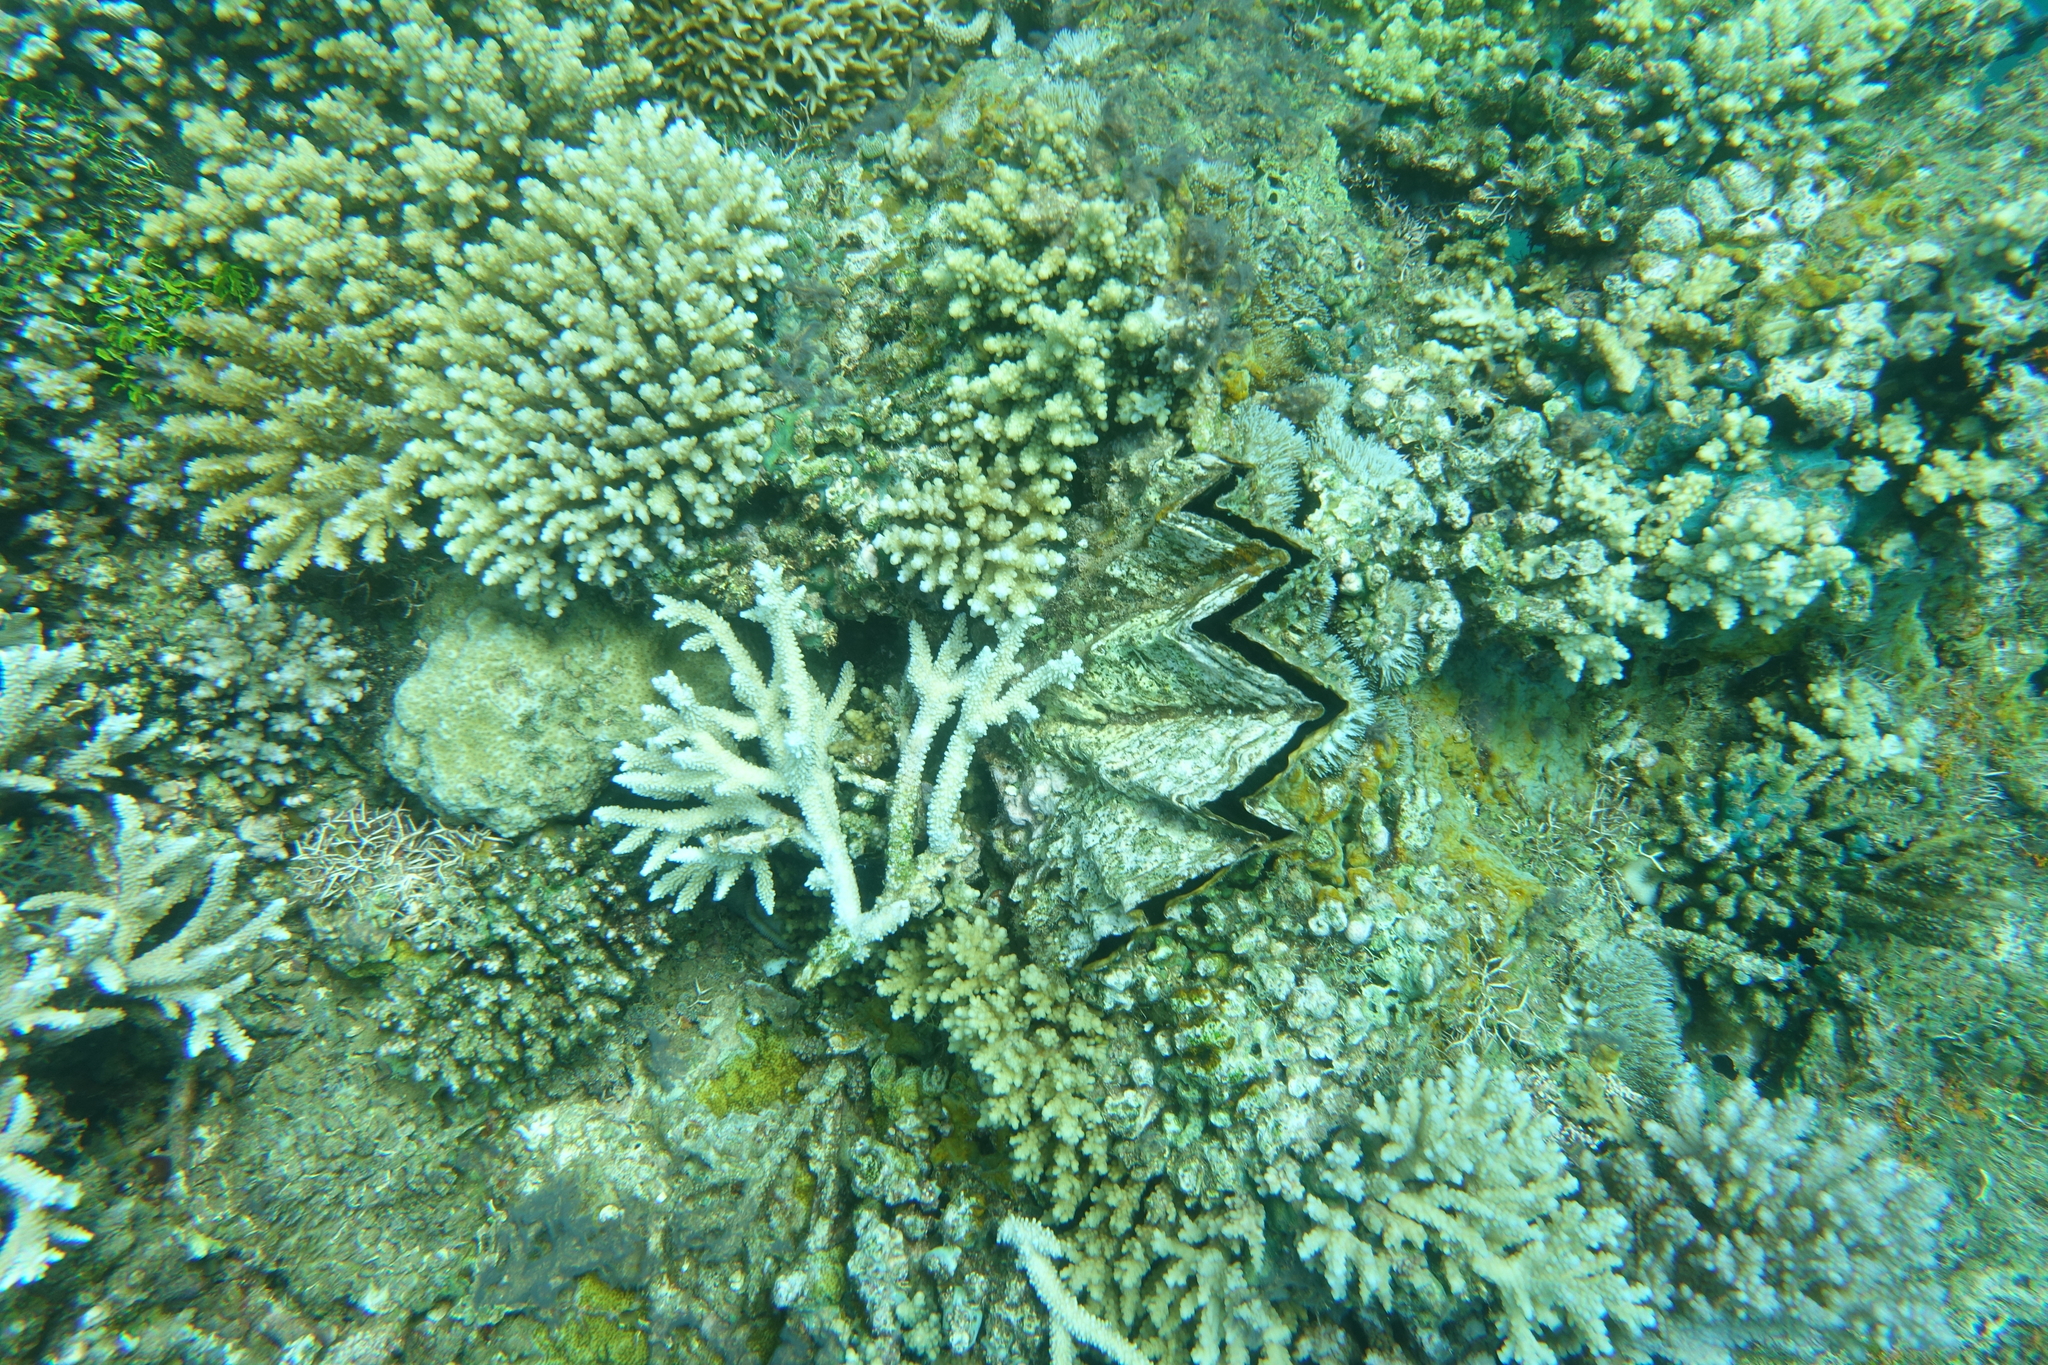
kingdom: Animalia
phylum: Mollusca
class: Bivalvia
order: Ostreida
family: Gryphaeidae
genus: Hyotissa
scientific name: Hyotissa hyotis
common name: Giant honeycomb oyster
